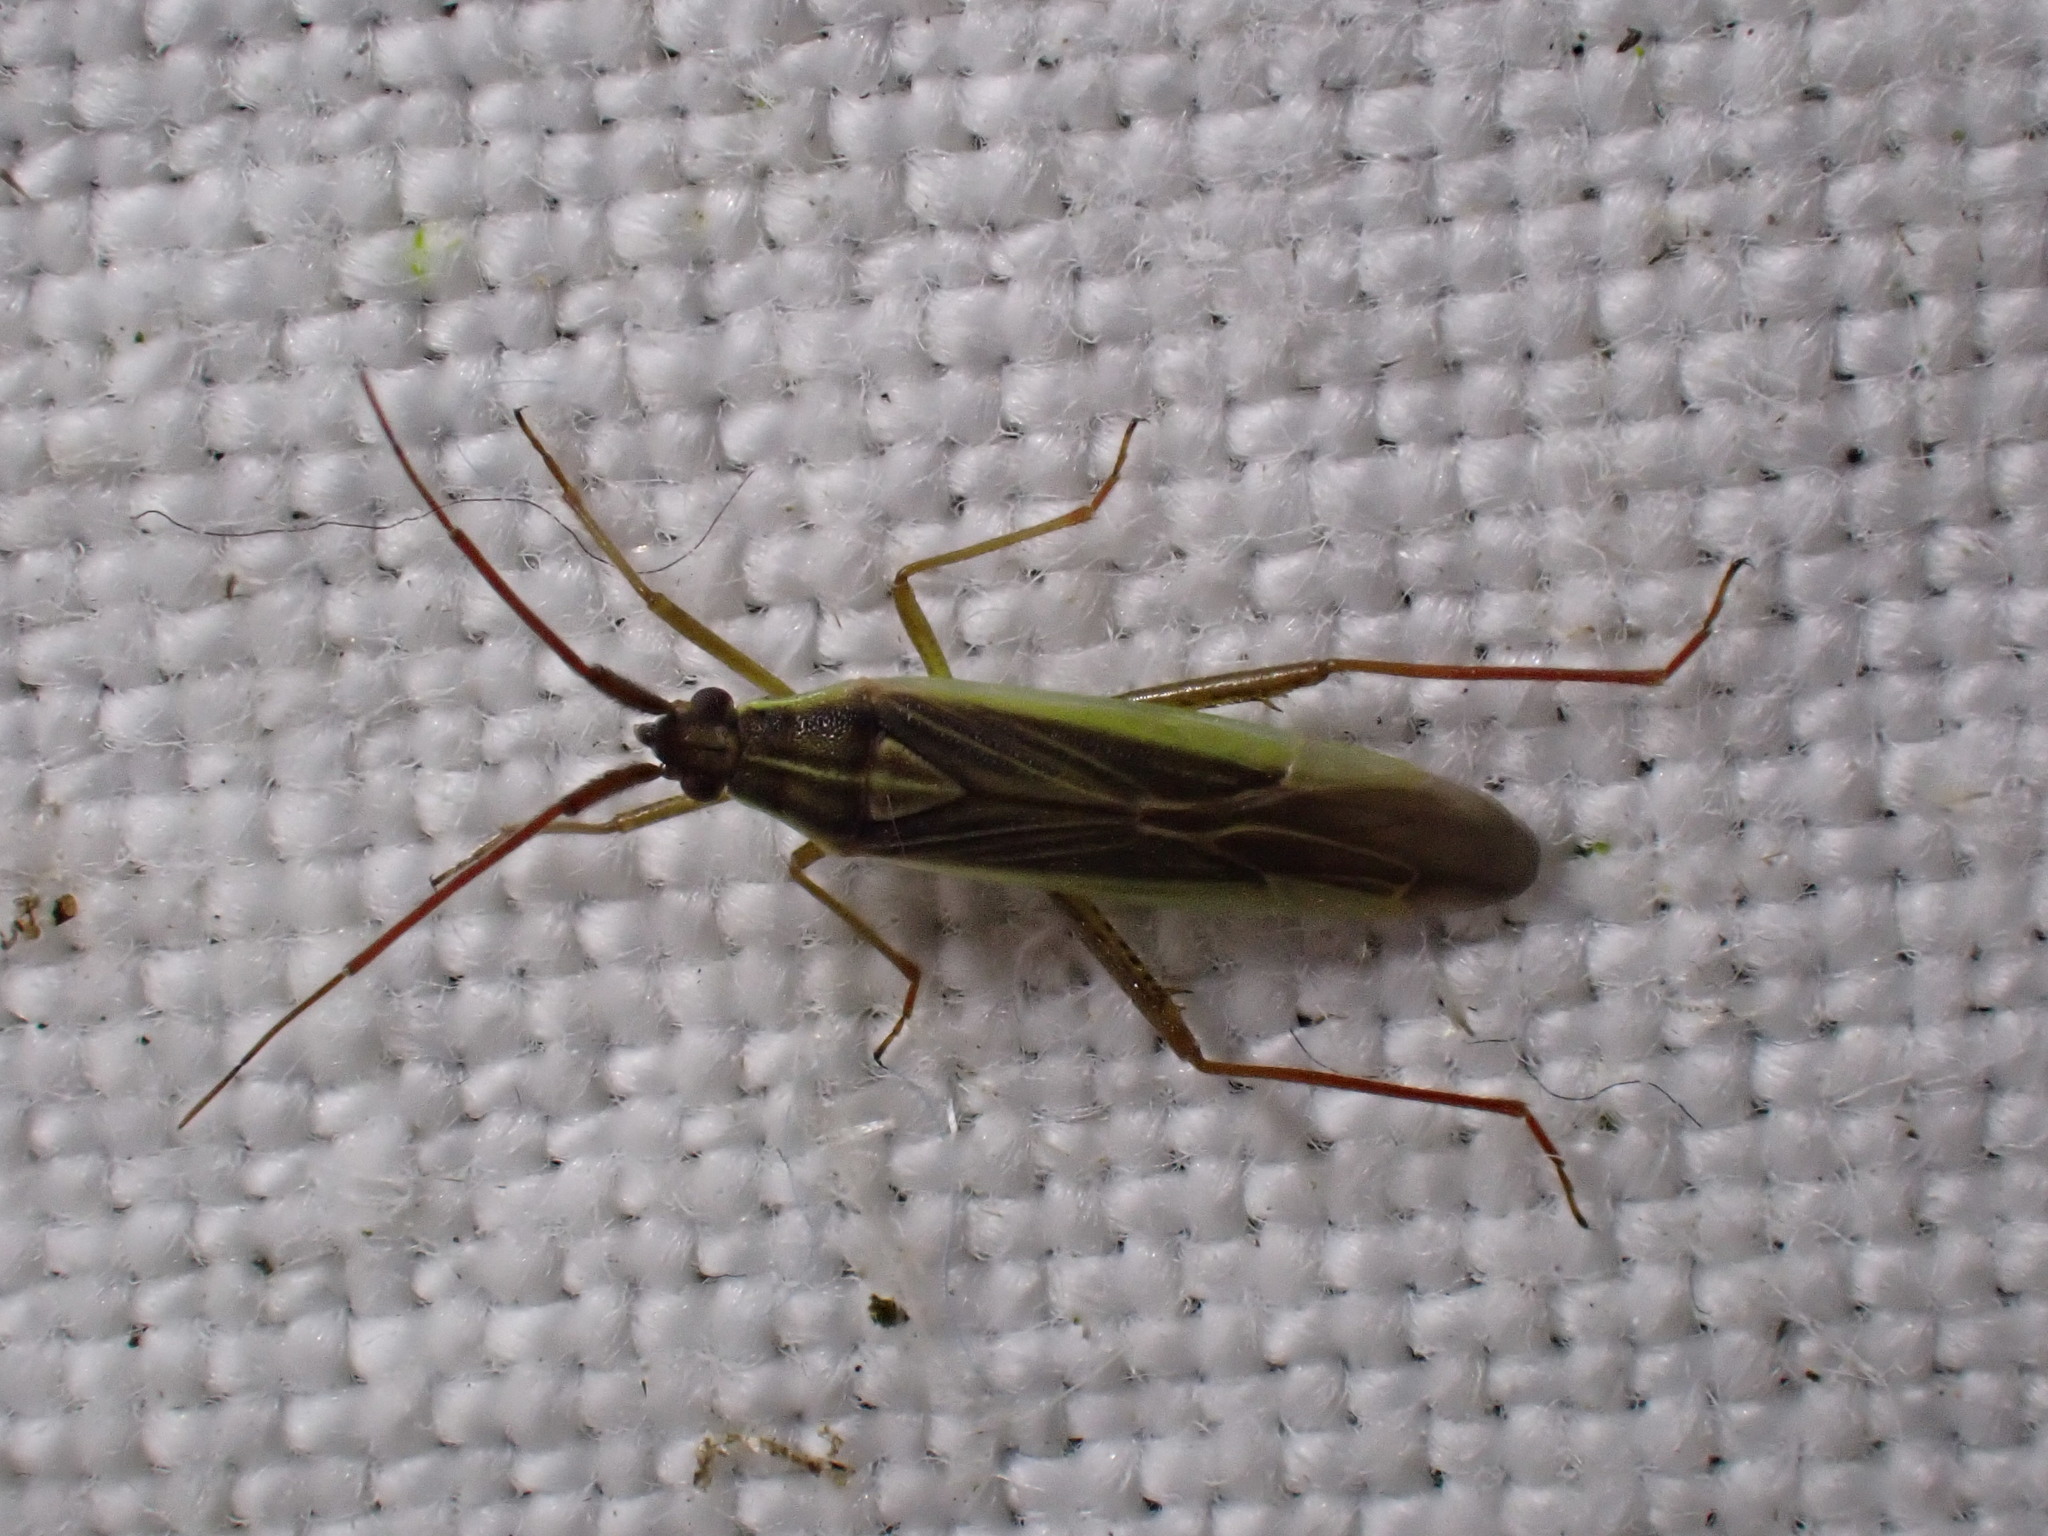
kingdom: Animalia
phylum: Arthropoda
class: Insecta
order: Hemiptera
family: Miridae
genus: Stenodema
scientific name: Stenodema calcarata
